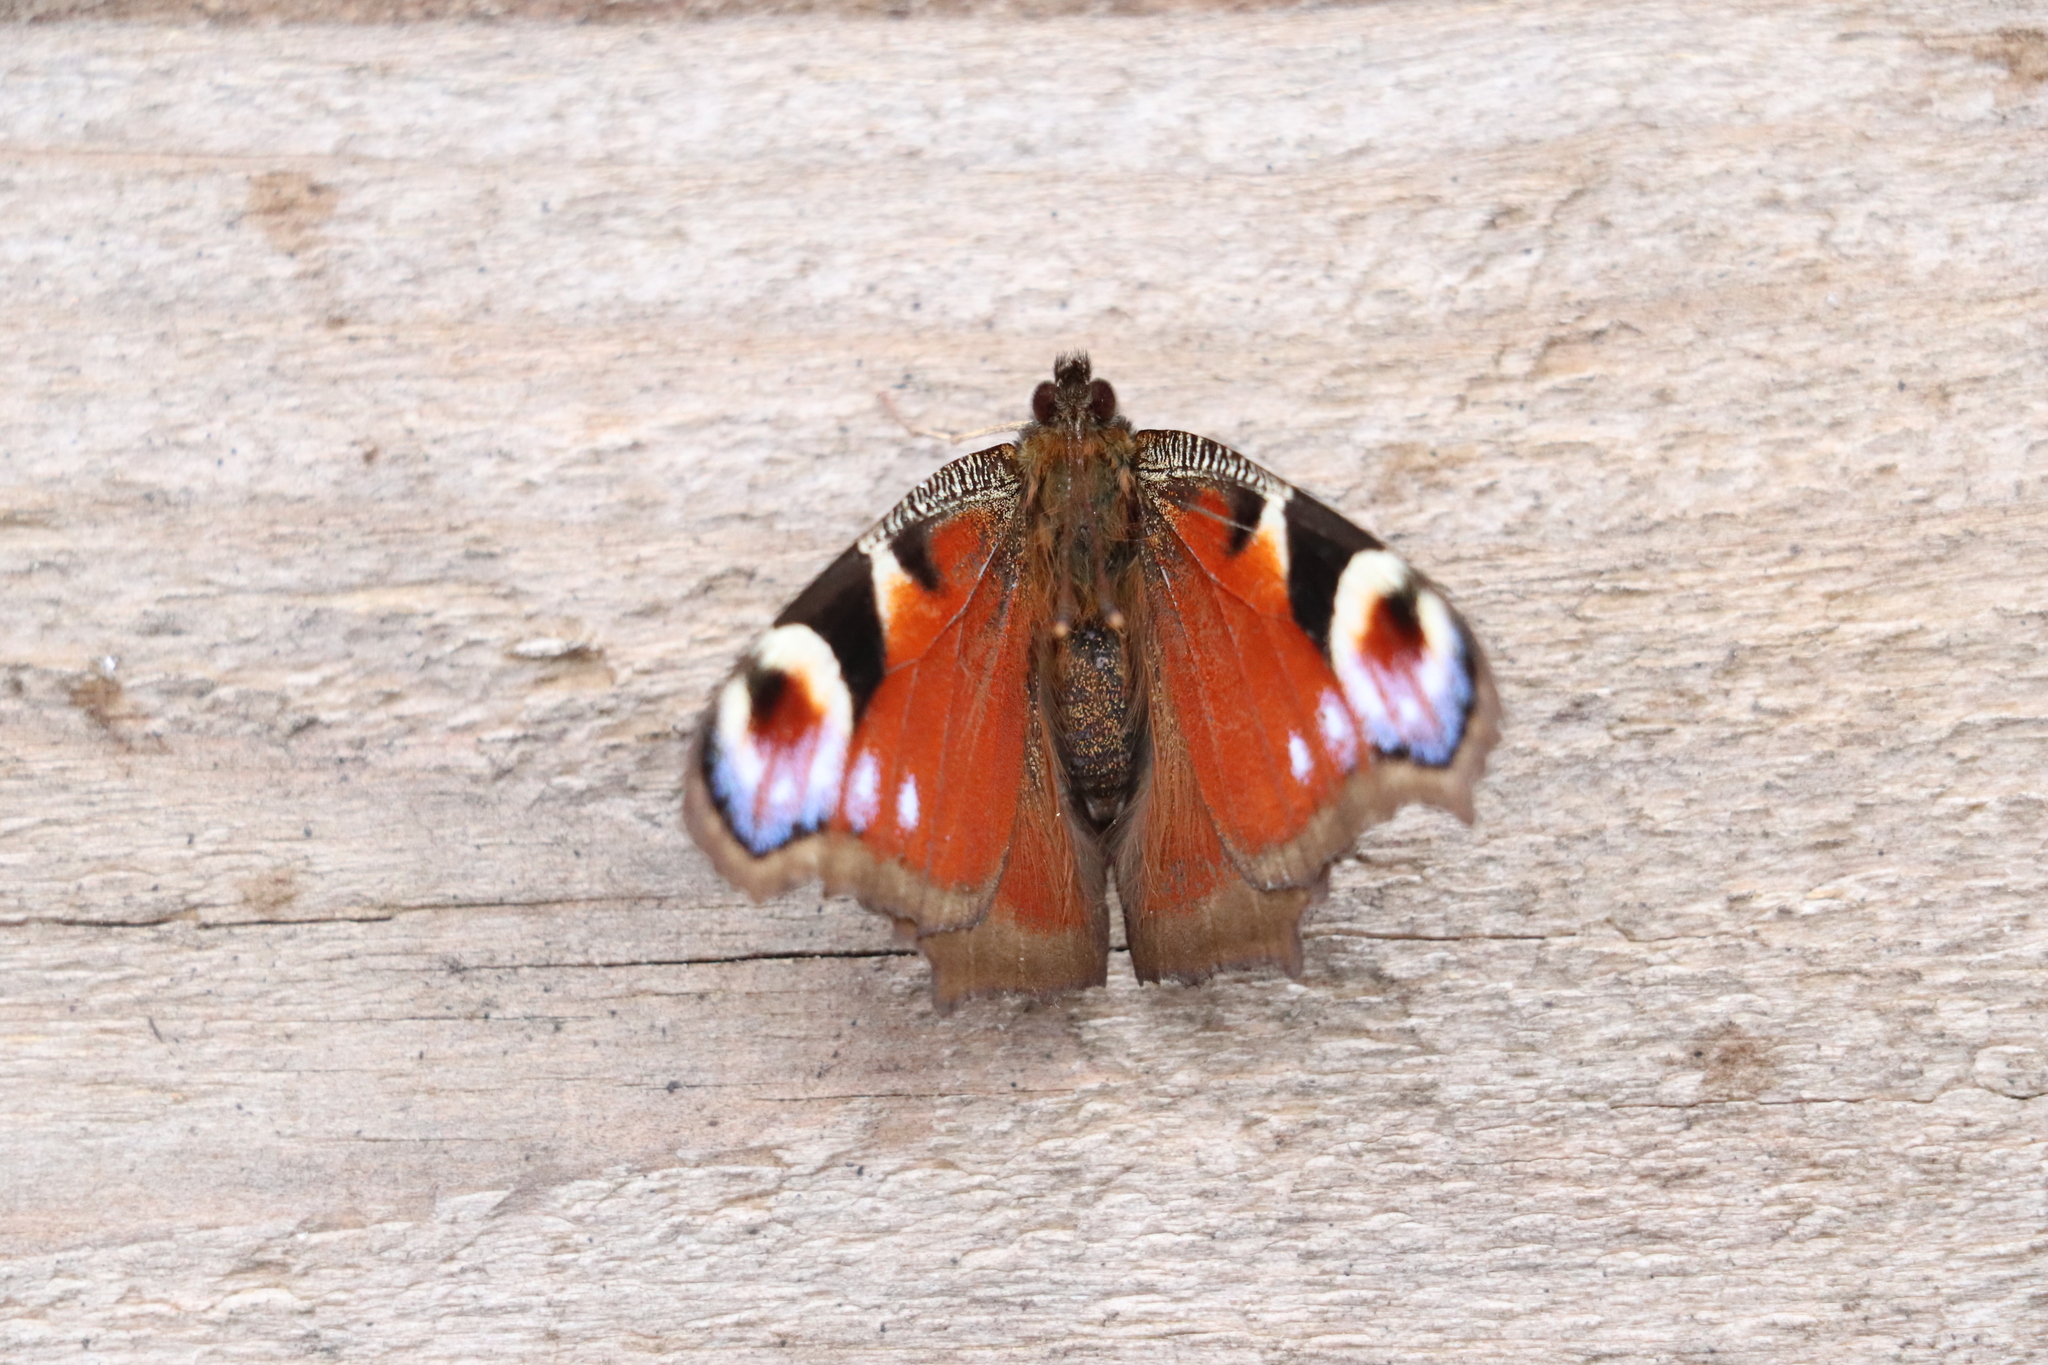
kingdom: Animalia
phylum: Arthropoda
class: Insecta
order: Lepidoptera
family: Nymphalidae
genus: Aglais
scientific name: Aglais io
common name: Peacock
